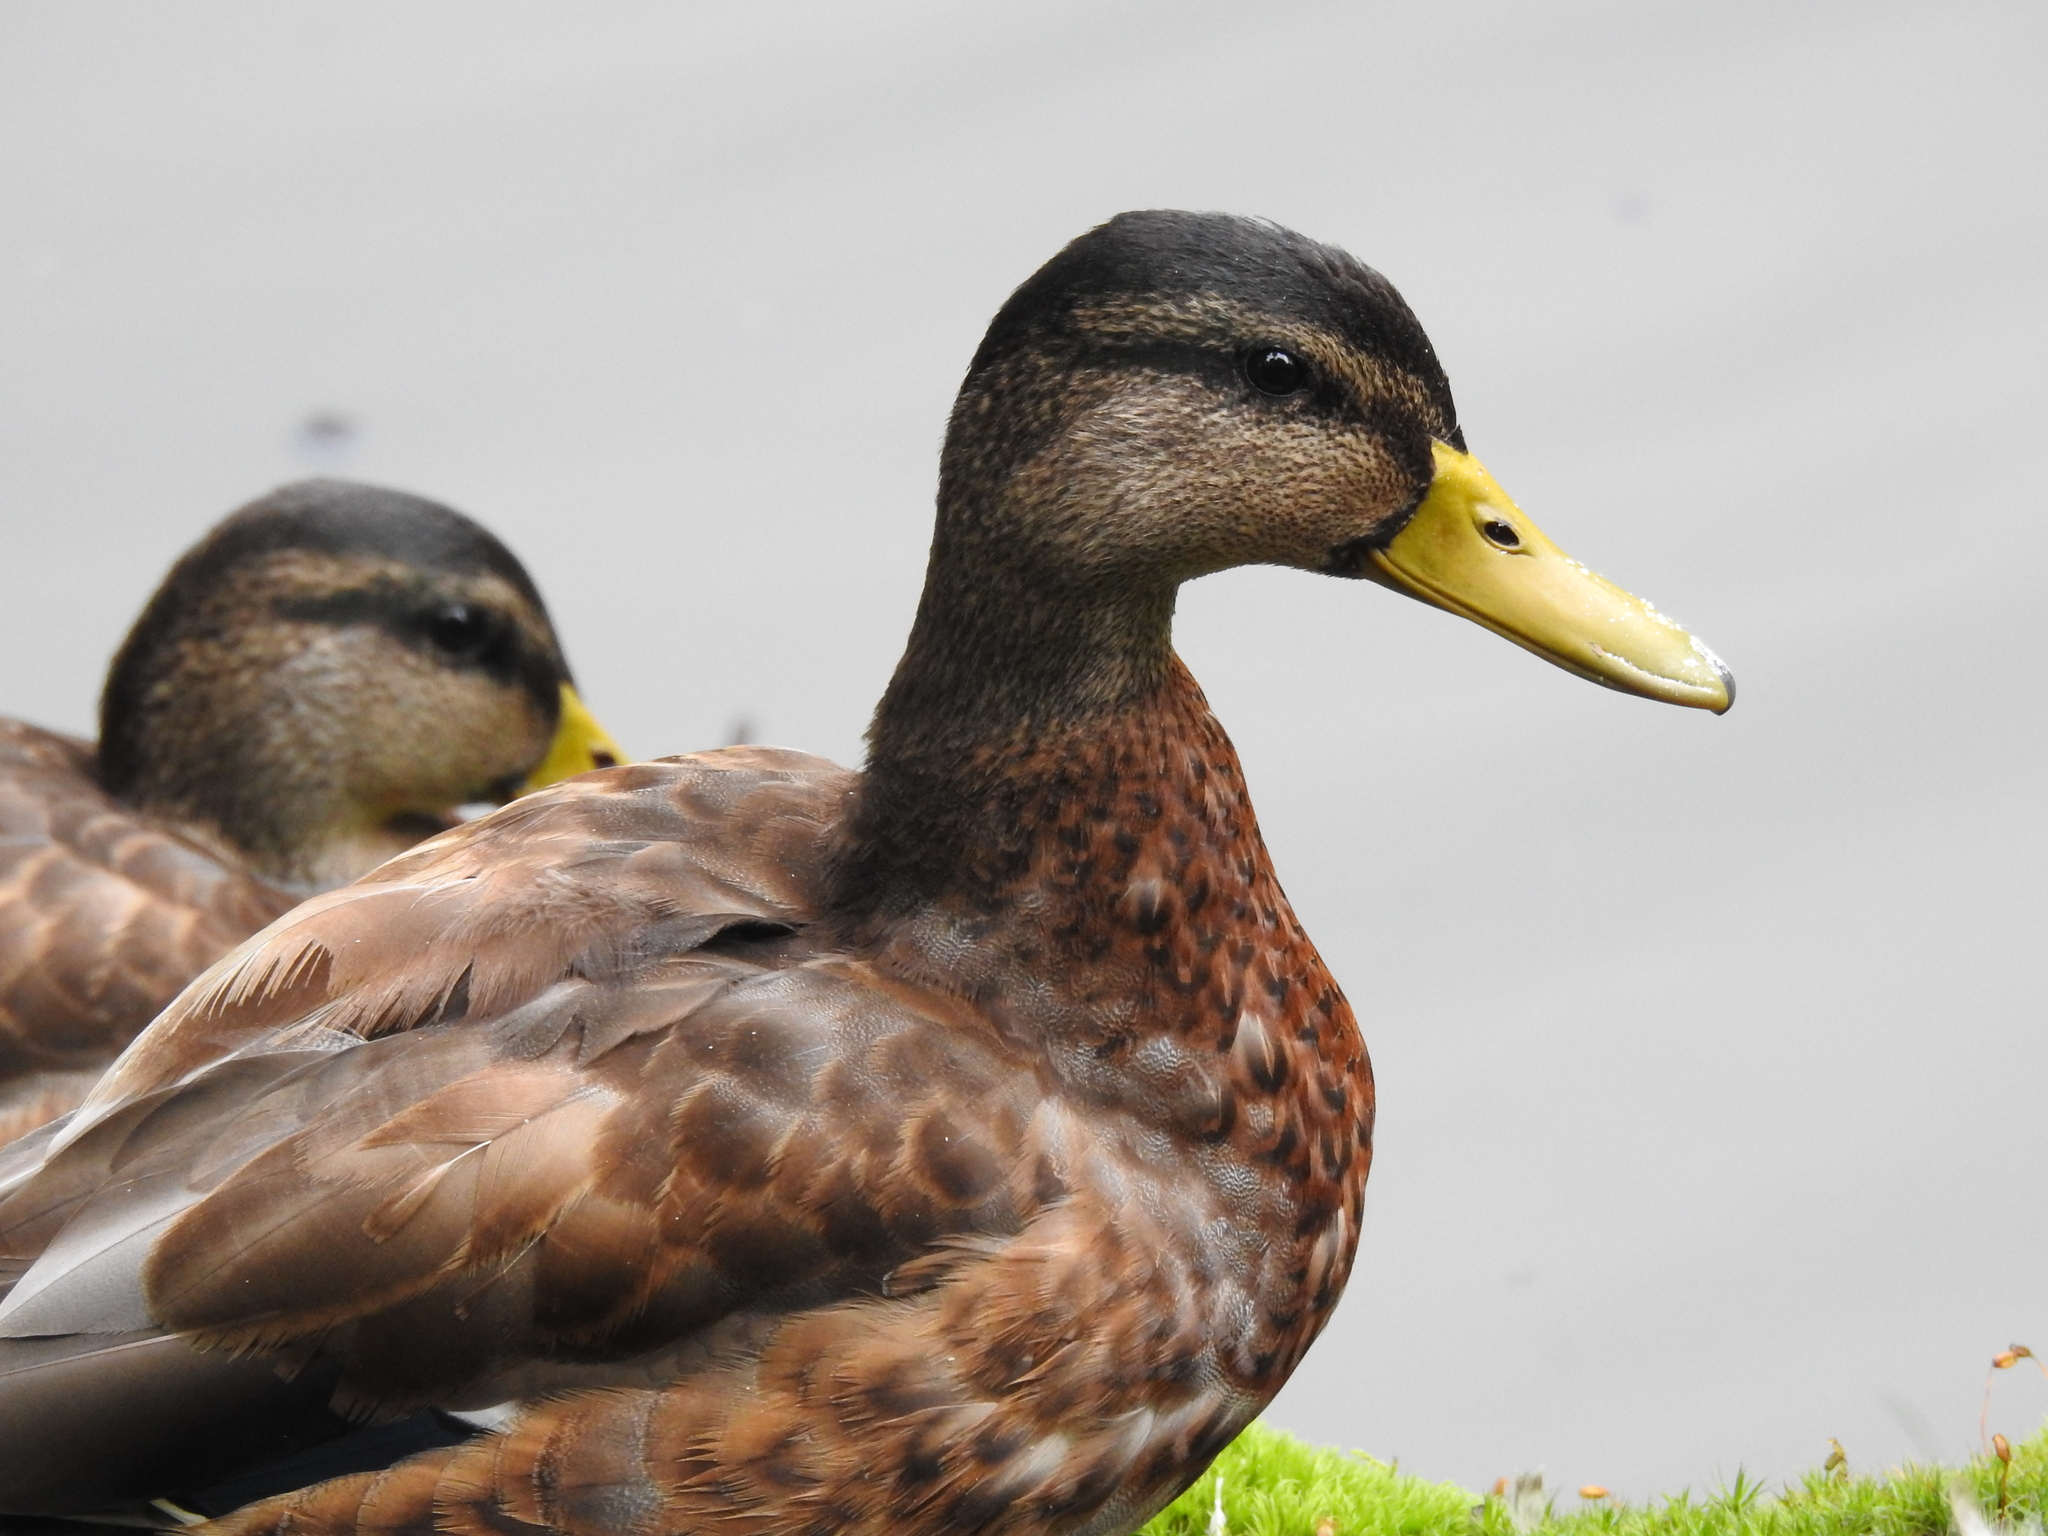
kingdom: Animalia
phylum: Chordata
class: Aves
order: Anseriformes
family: Anatidae
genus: Anas
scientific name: Anas platyrhynchos
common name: Mallard
